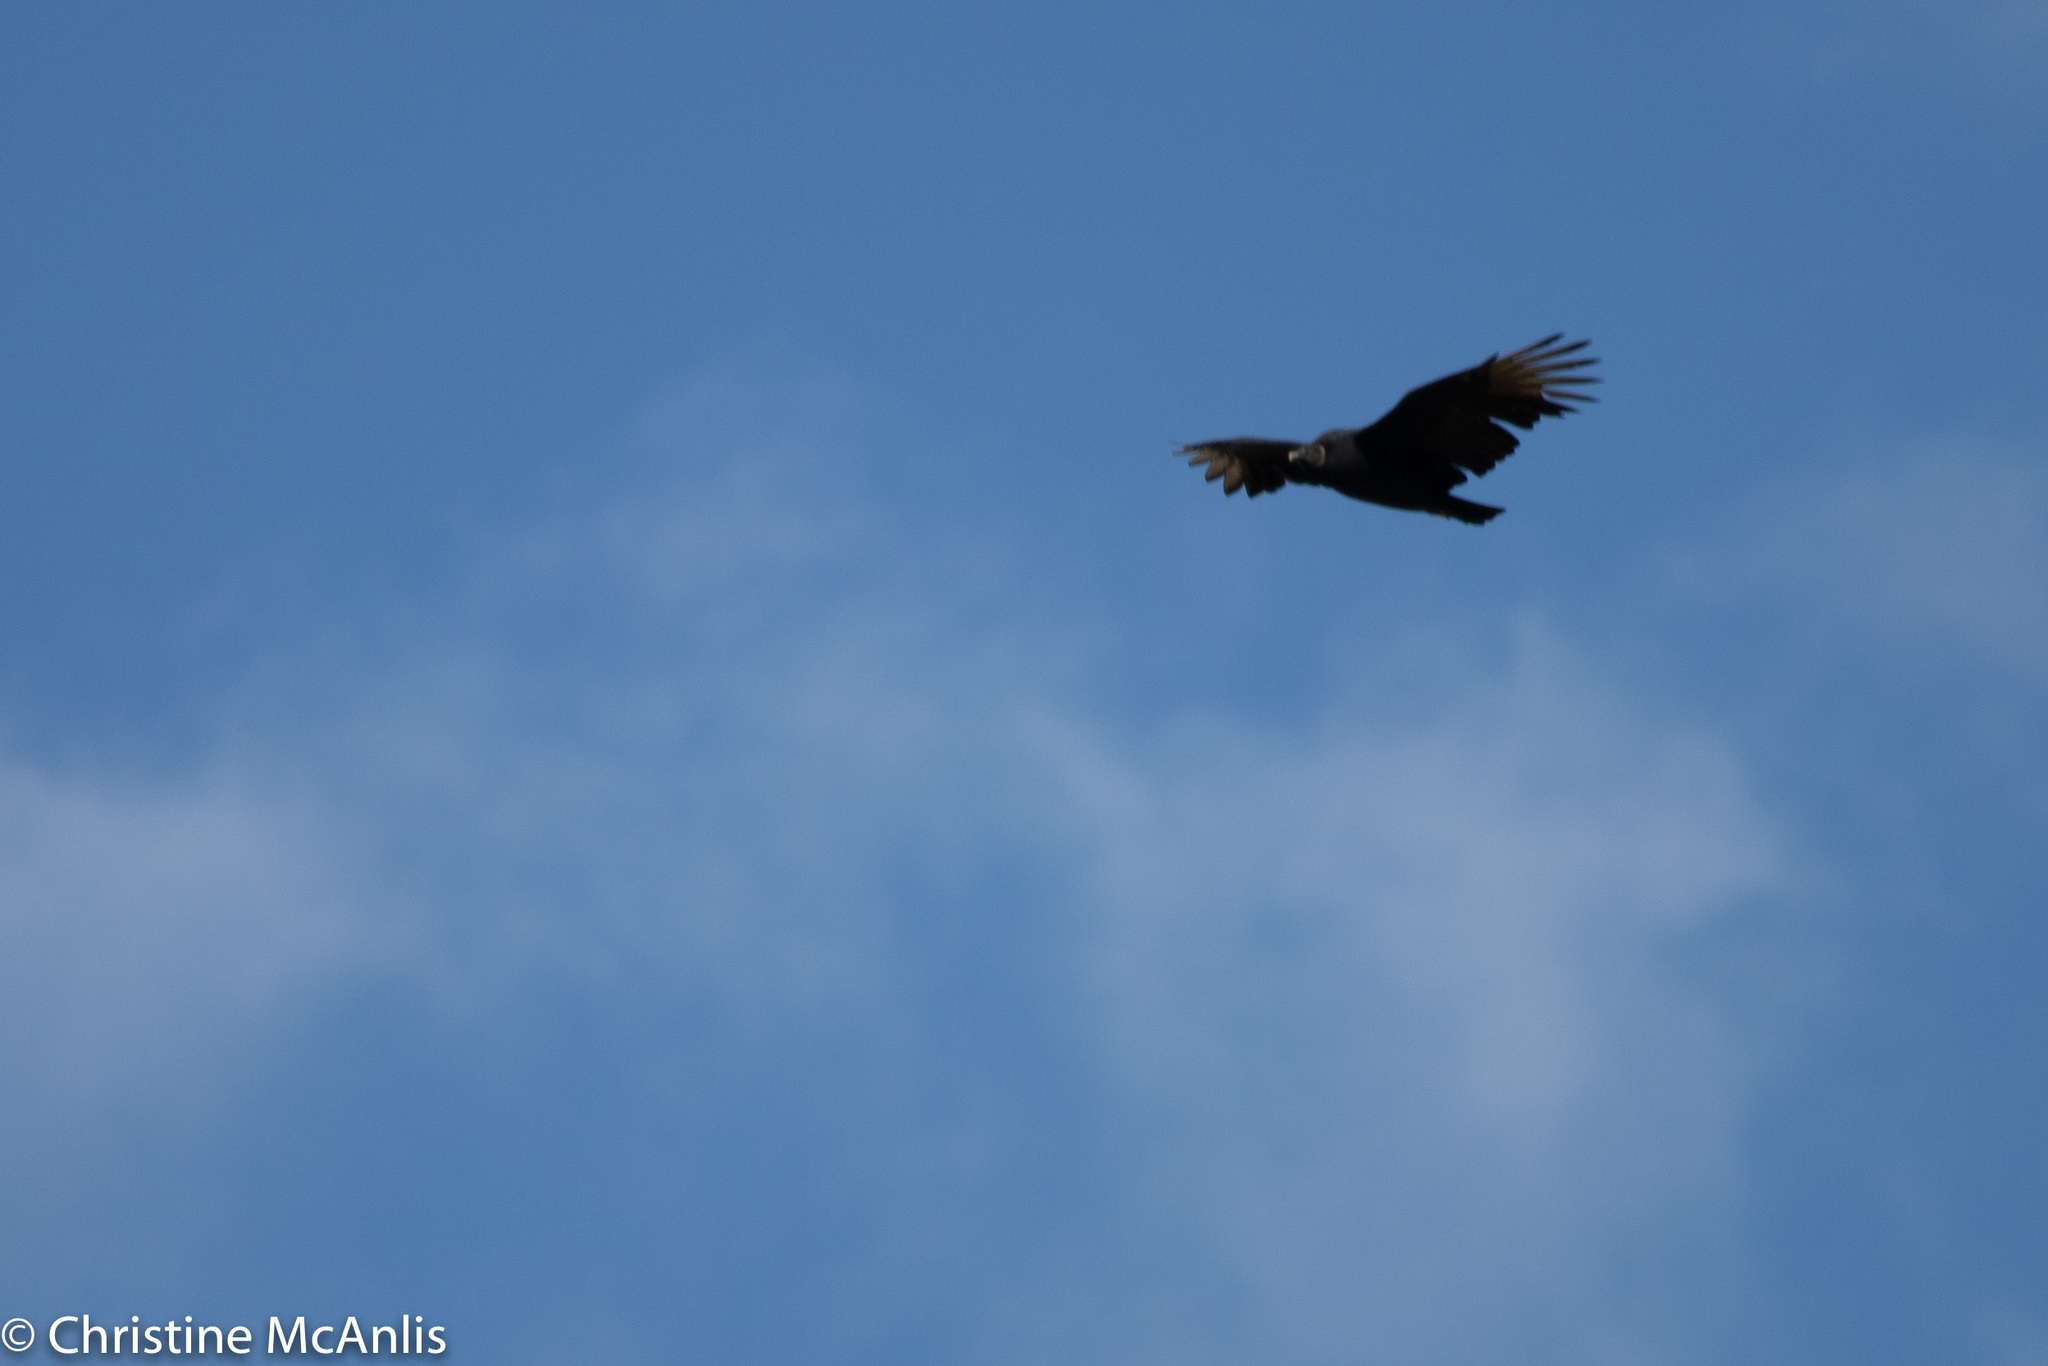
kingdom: Animalia
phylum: Chordata
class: Aves
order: Accipitriformes
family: Cathartidae
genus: Coragyps
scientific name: Coragyps atratus
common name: Black vulture
